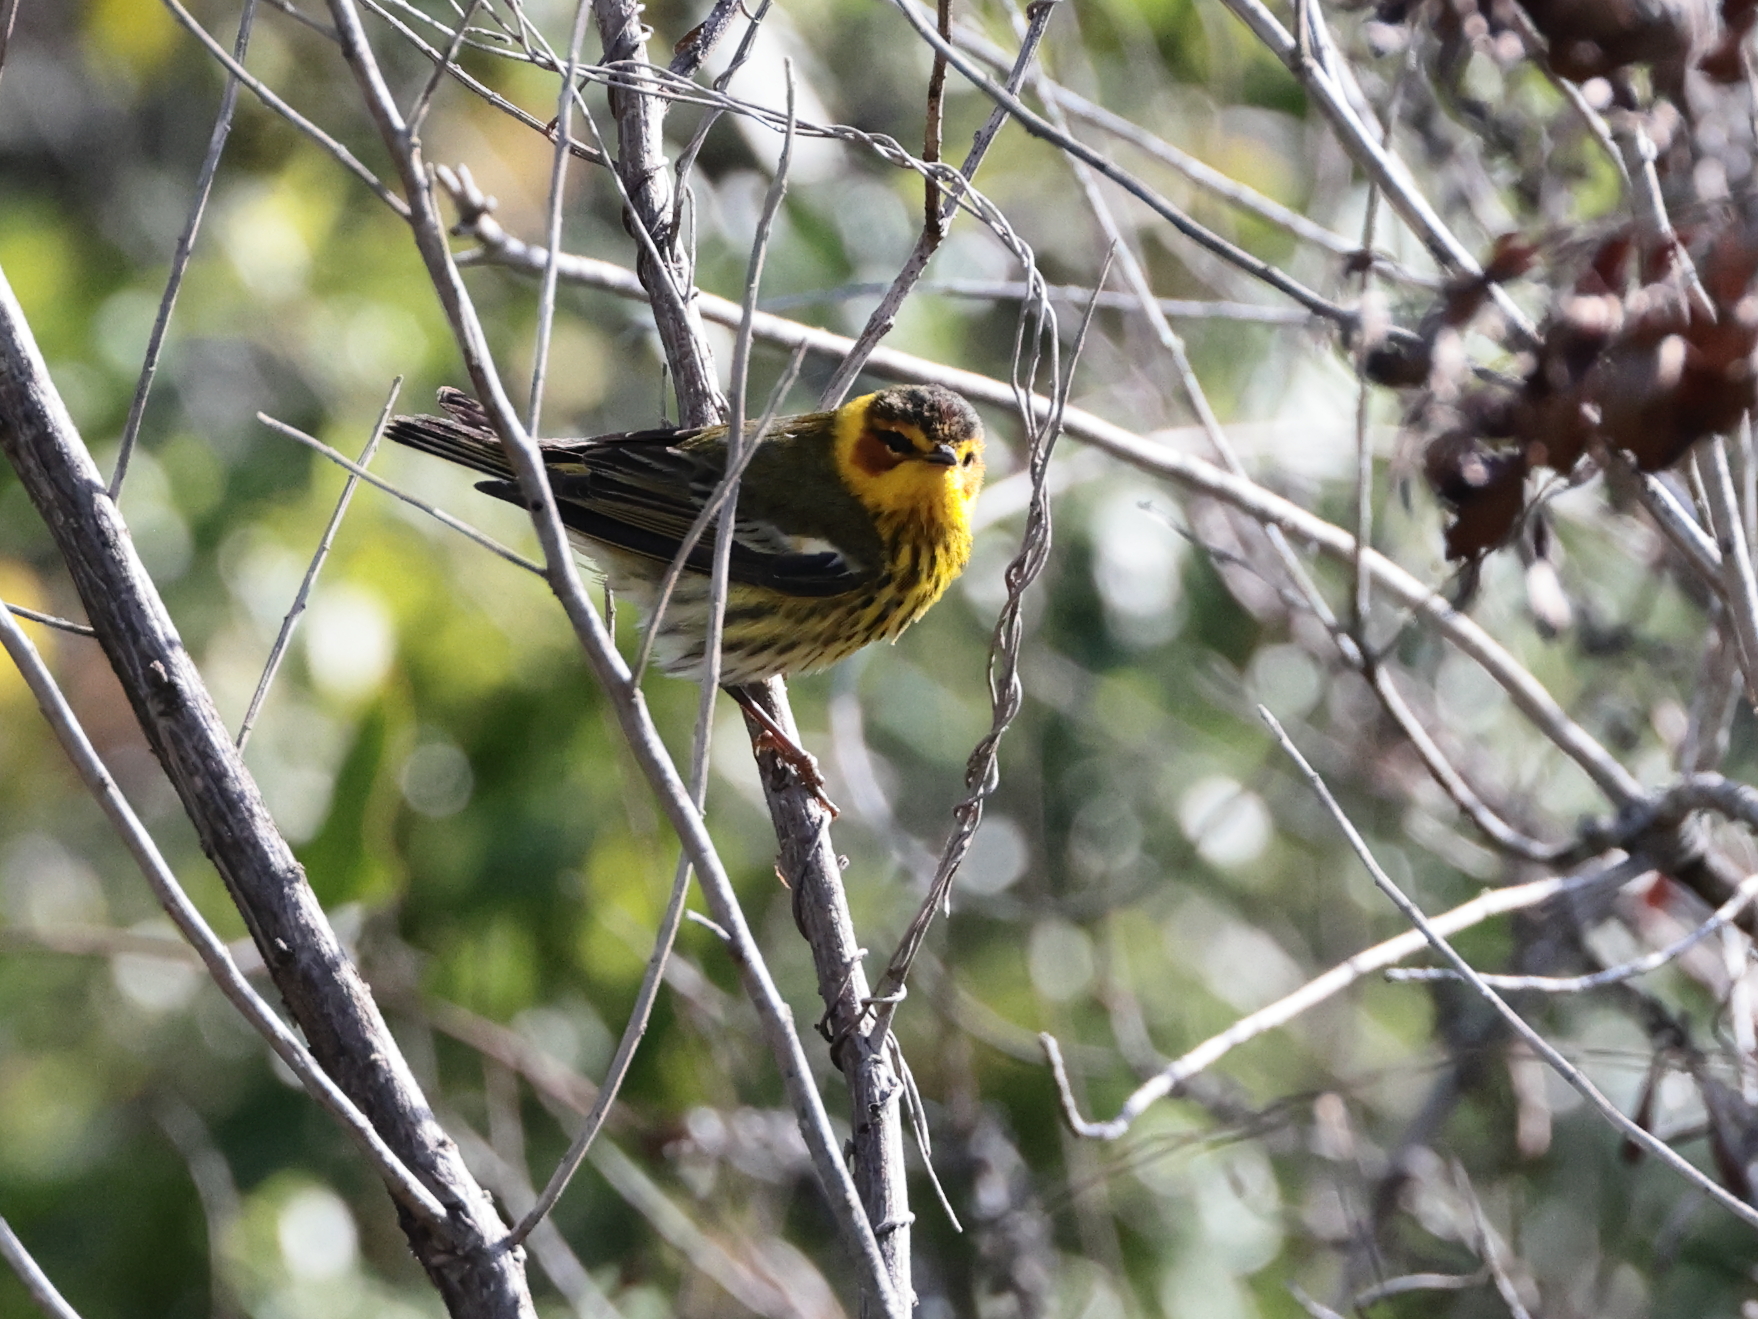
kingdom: Animalia
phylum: Chordata
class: Aves
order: Passeriformes
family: Parulidae
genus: Setophaga
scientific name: Setophaga tigrina
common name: Cape may warbler
